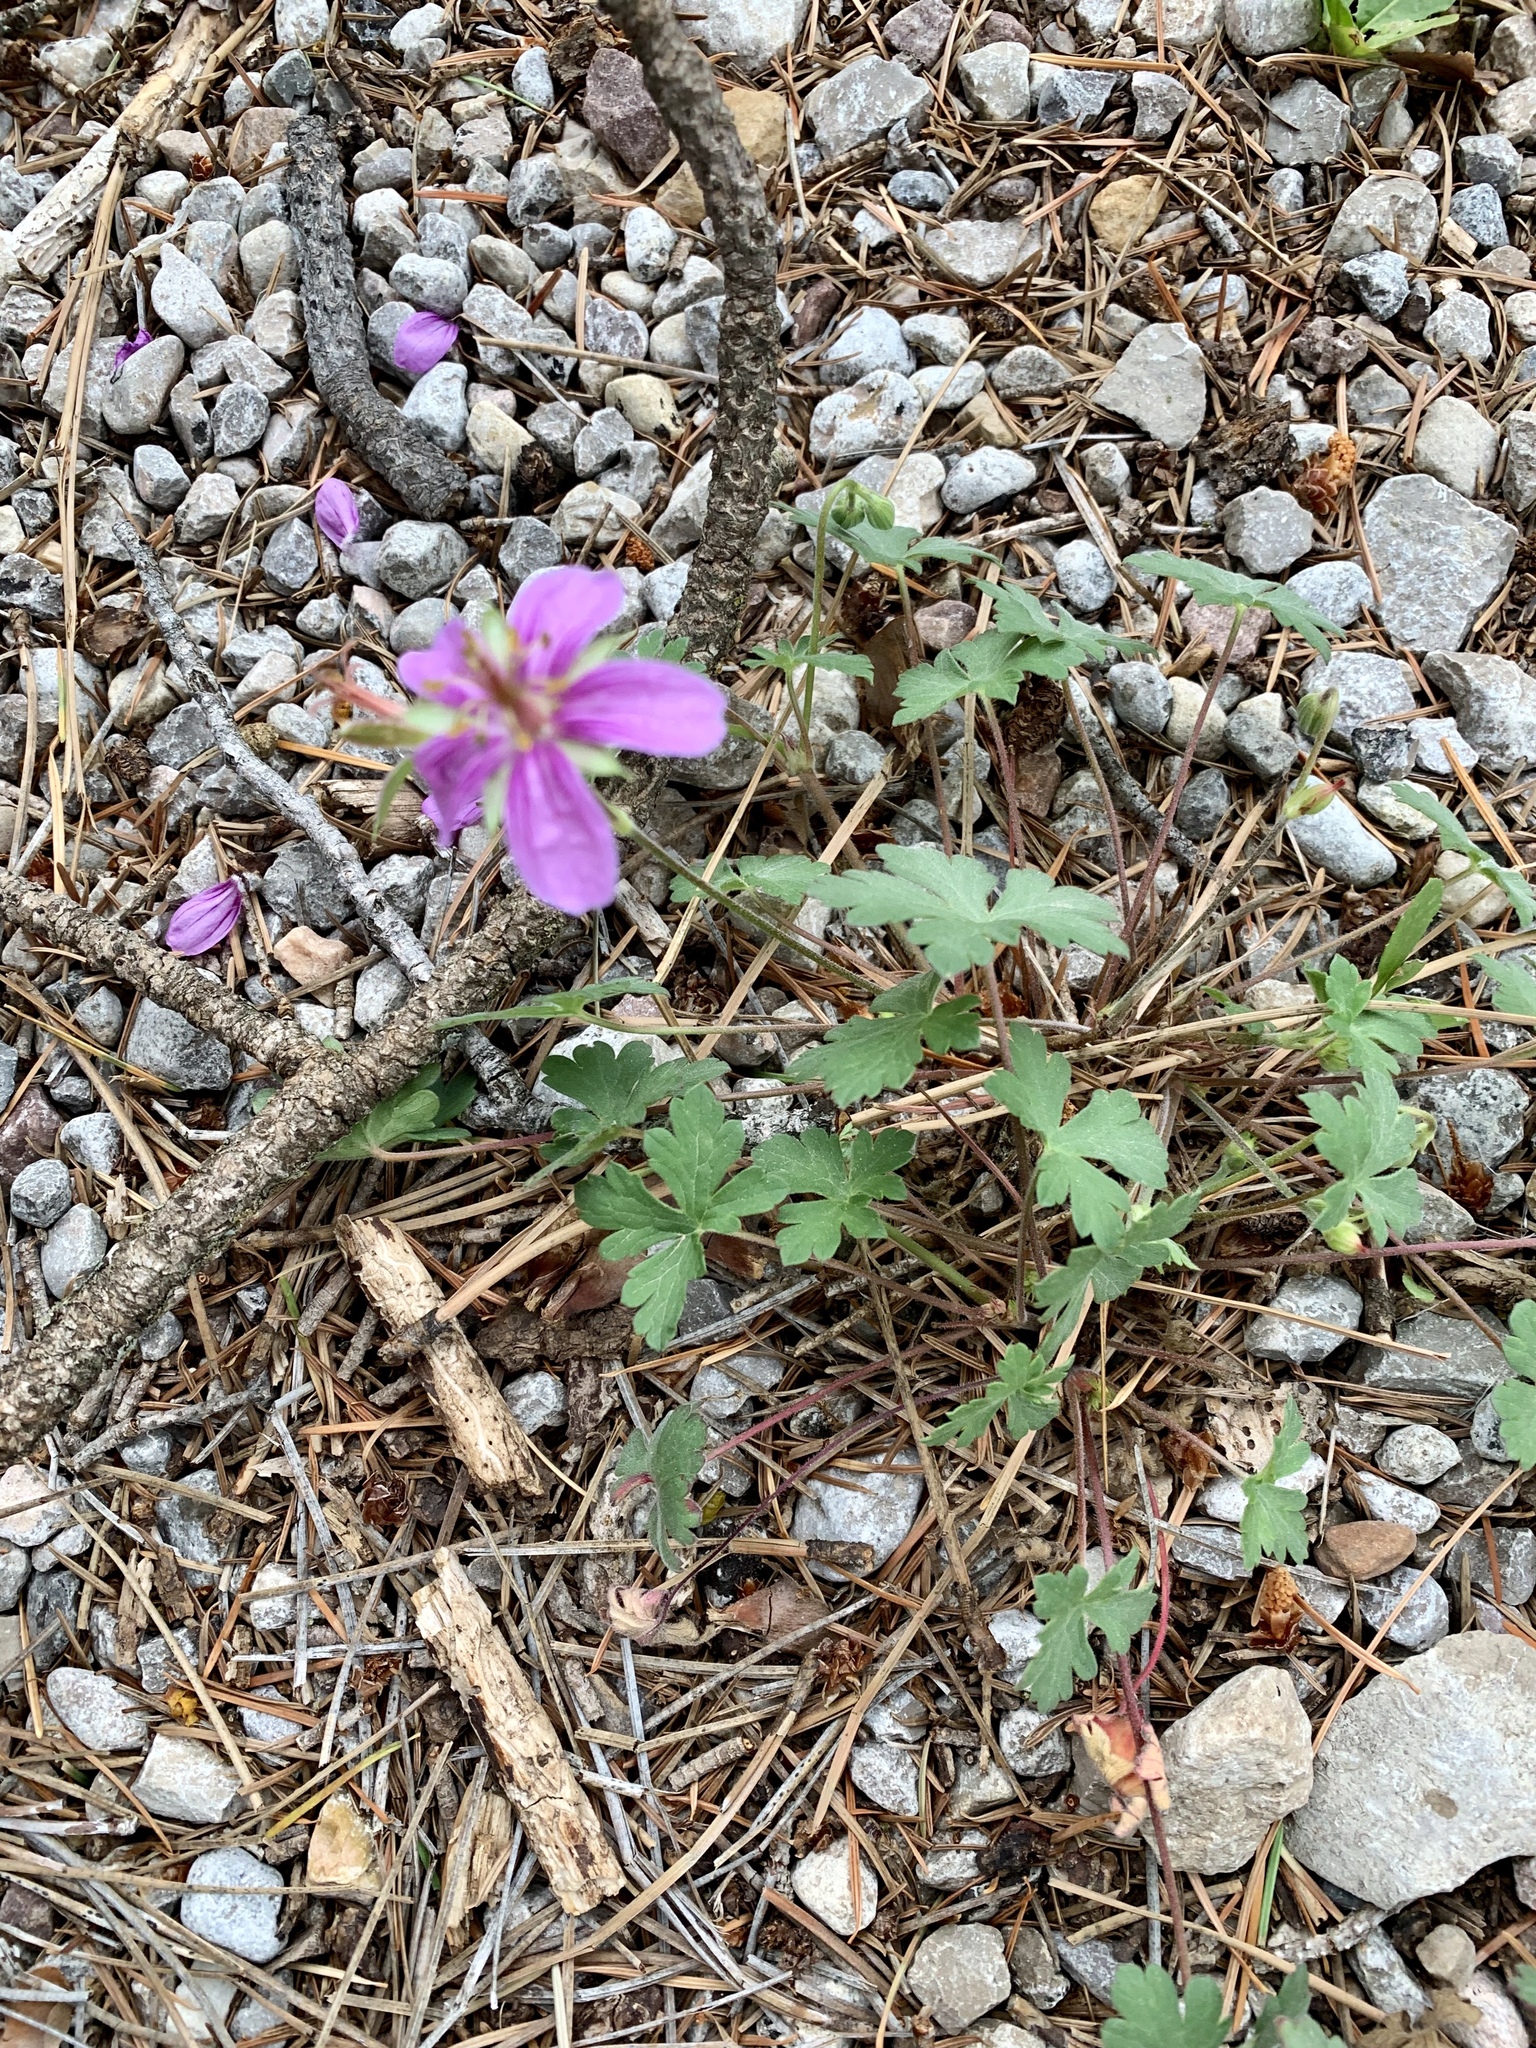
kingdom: Plantae
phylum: Tracheophyta
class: Magnoliopsida
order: Geraniales
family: Geraniaceae
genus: Geranium
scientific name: Geranium caespitosum
